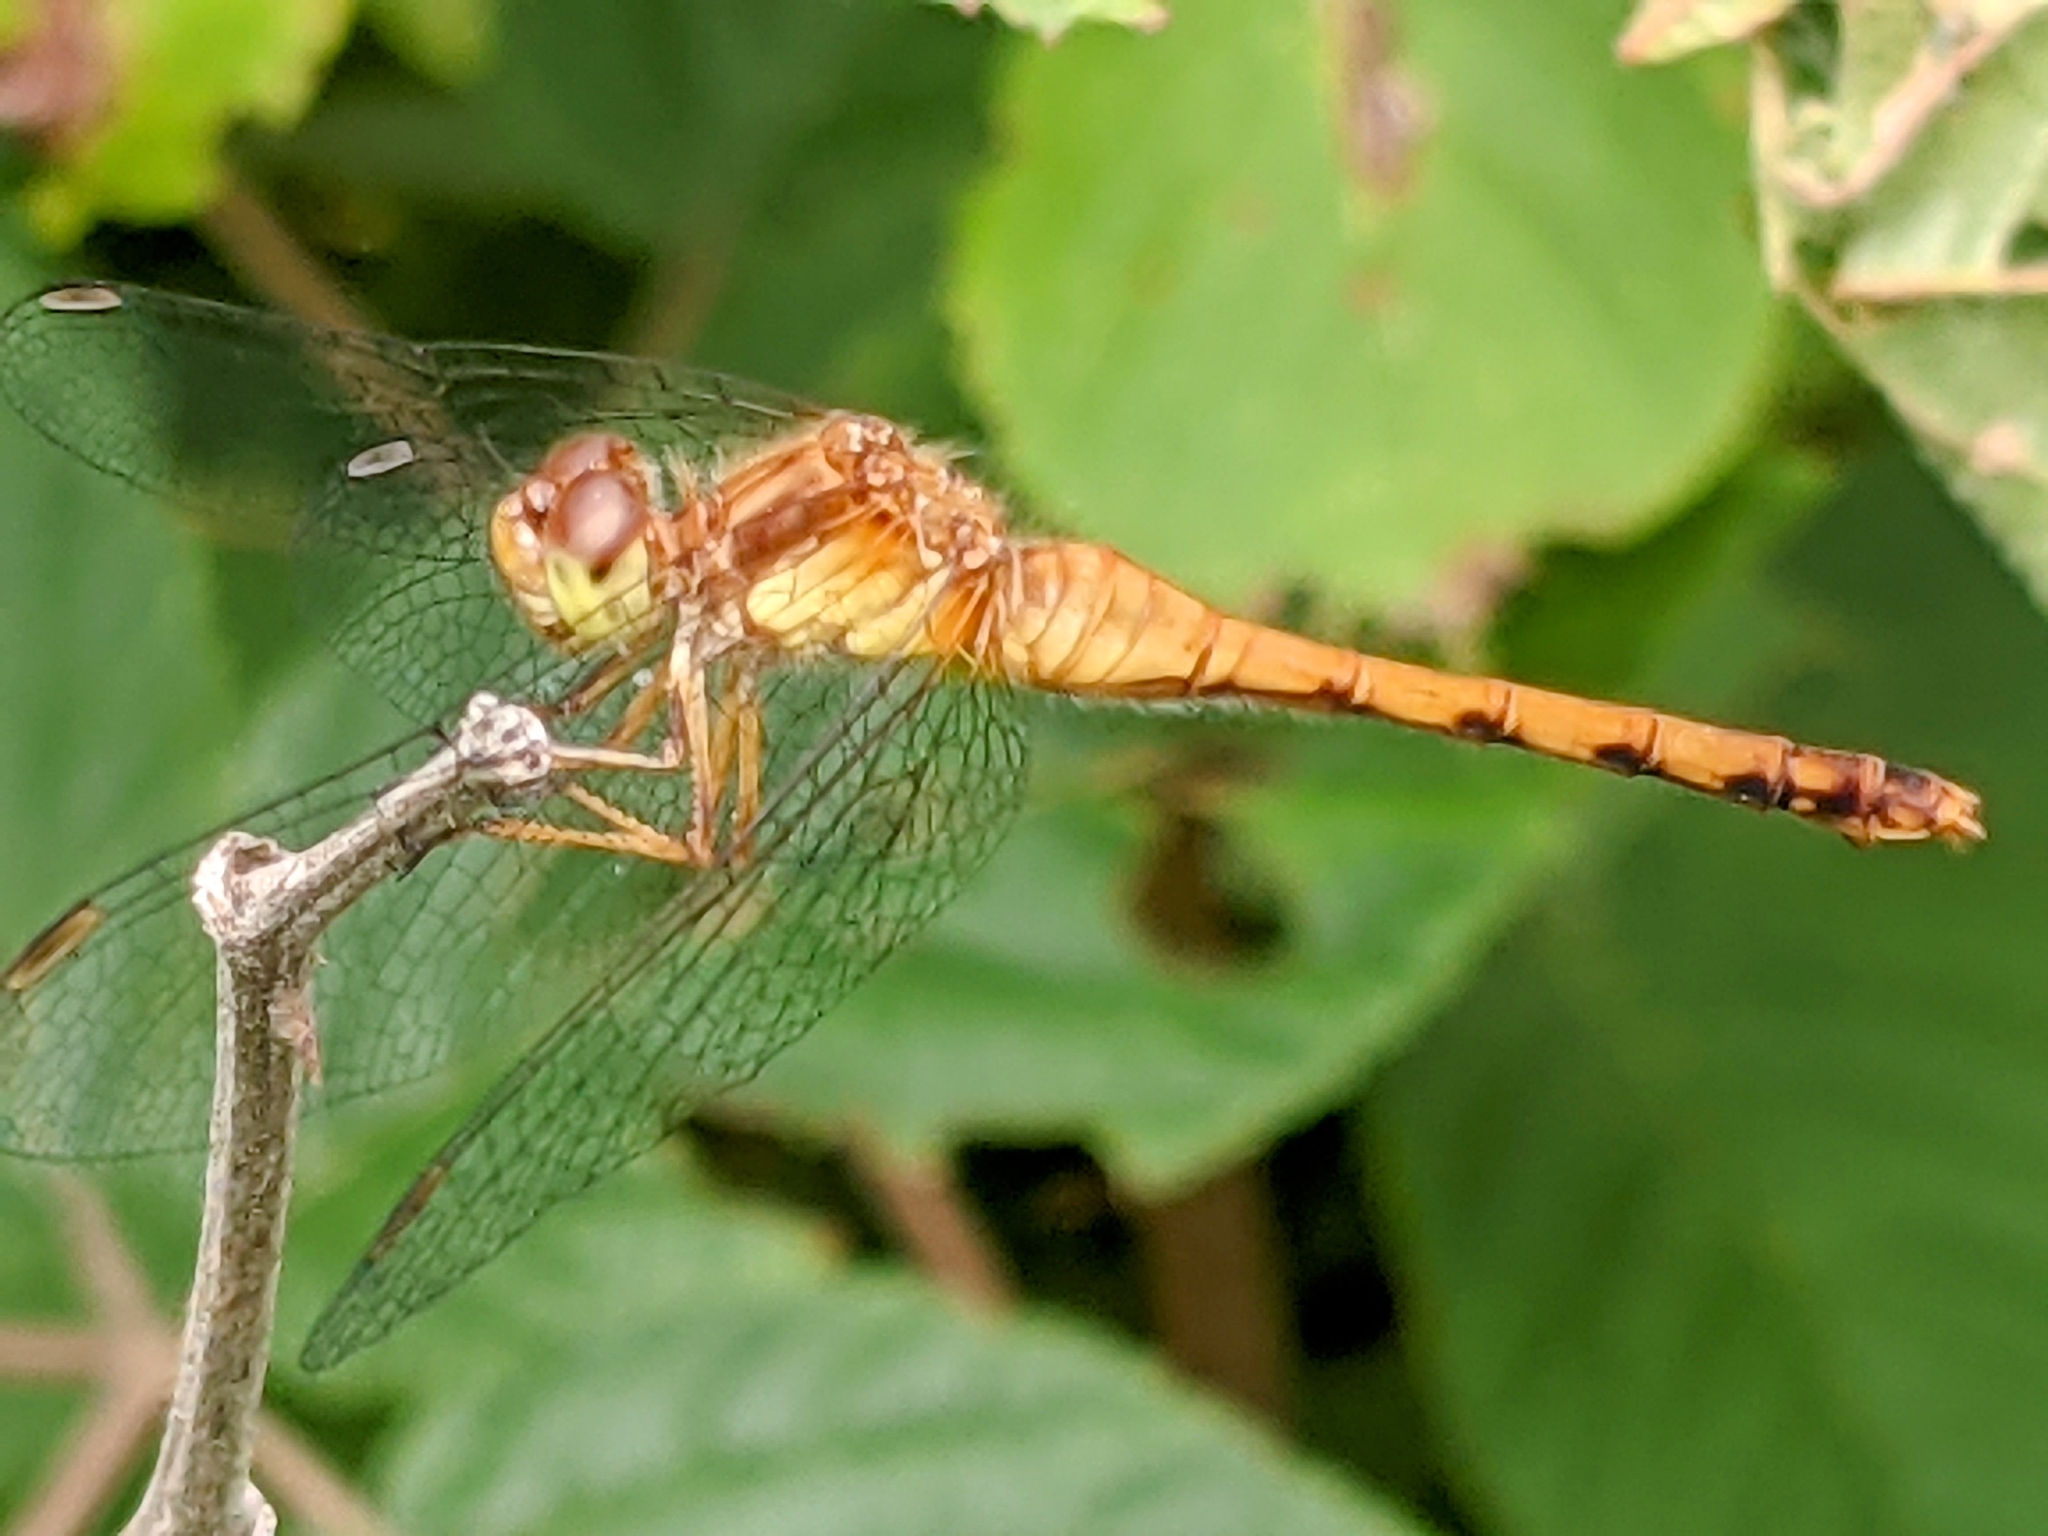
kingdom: Animalia
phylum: Arthropoda
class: Insecta
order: Odonata
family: Libellulidae
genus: Sympetrum
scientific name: Sympetrum vicinum
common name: Autumn meadowhawk
